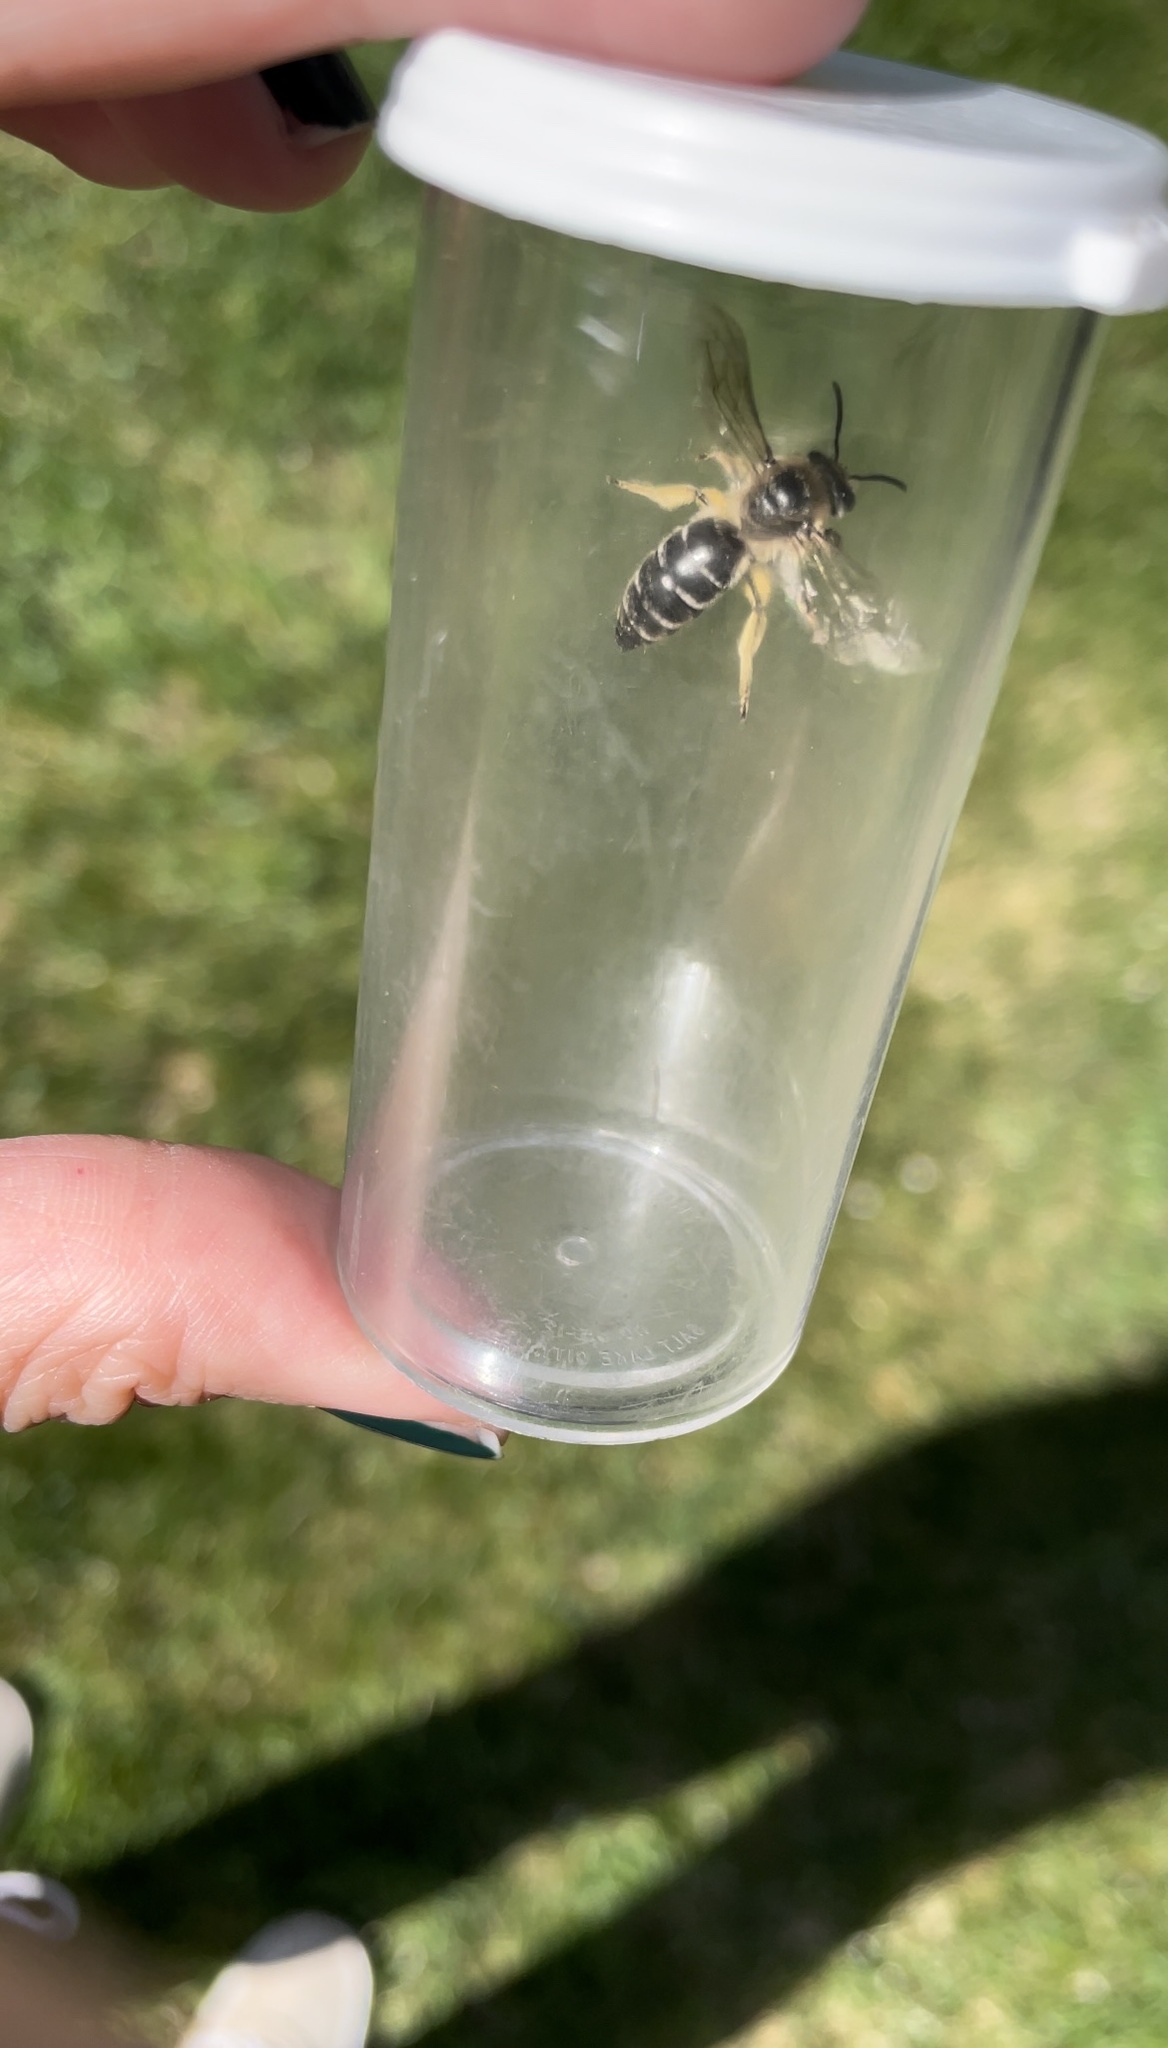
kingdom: Animalia
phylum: Arthropoda
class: Insecta
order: Hymenoptera
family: Colletidae
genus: Colletes
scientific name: Colletes inaequalis
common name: Unequal cellophane bee
